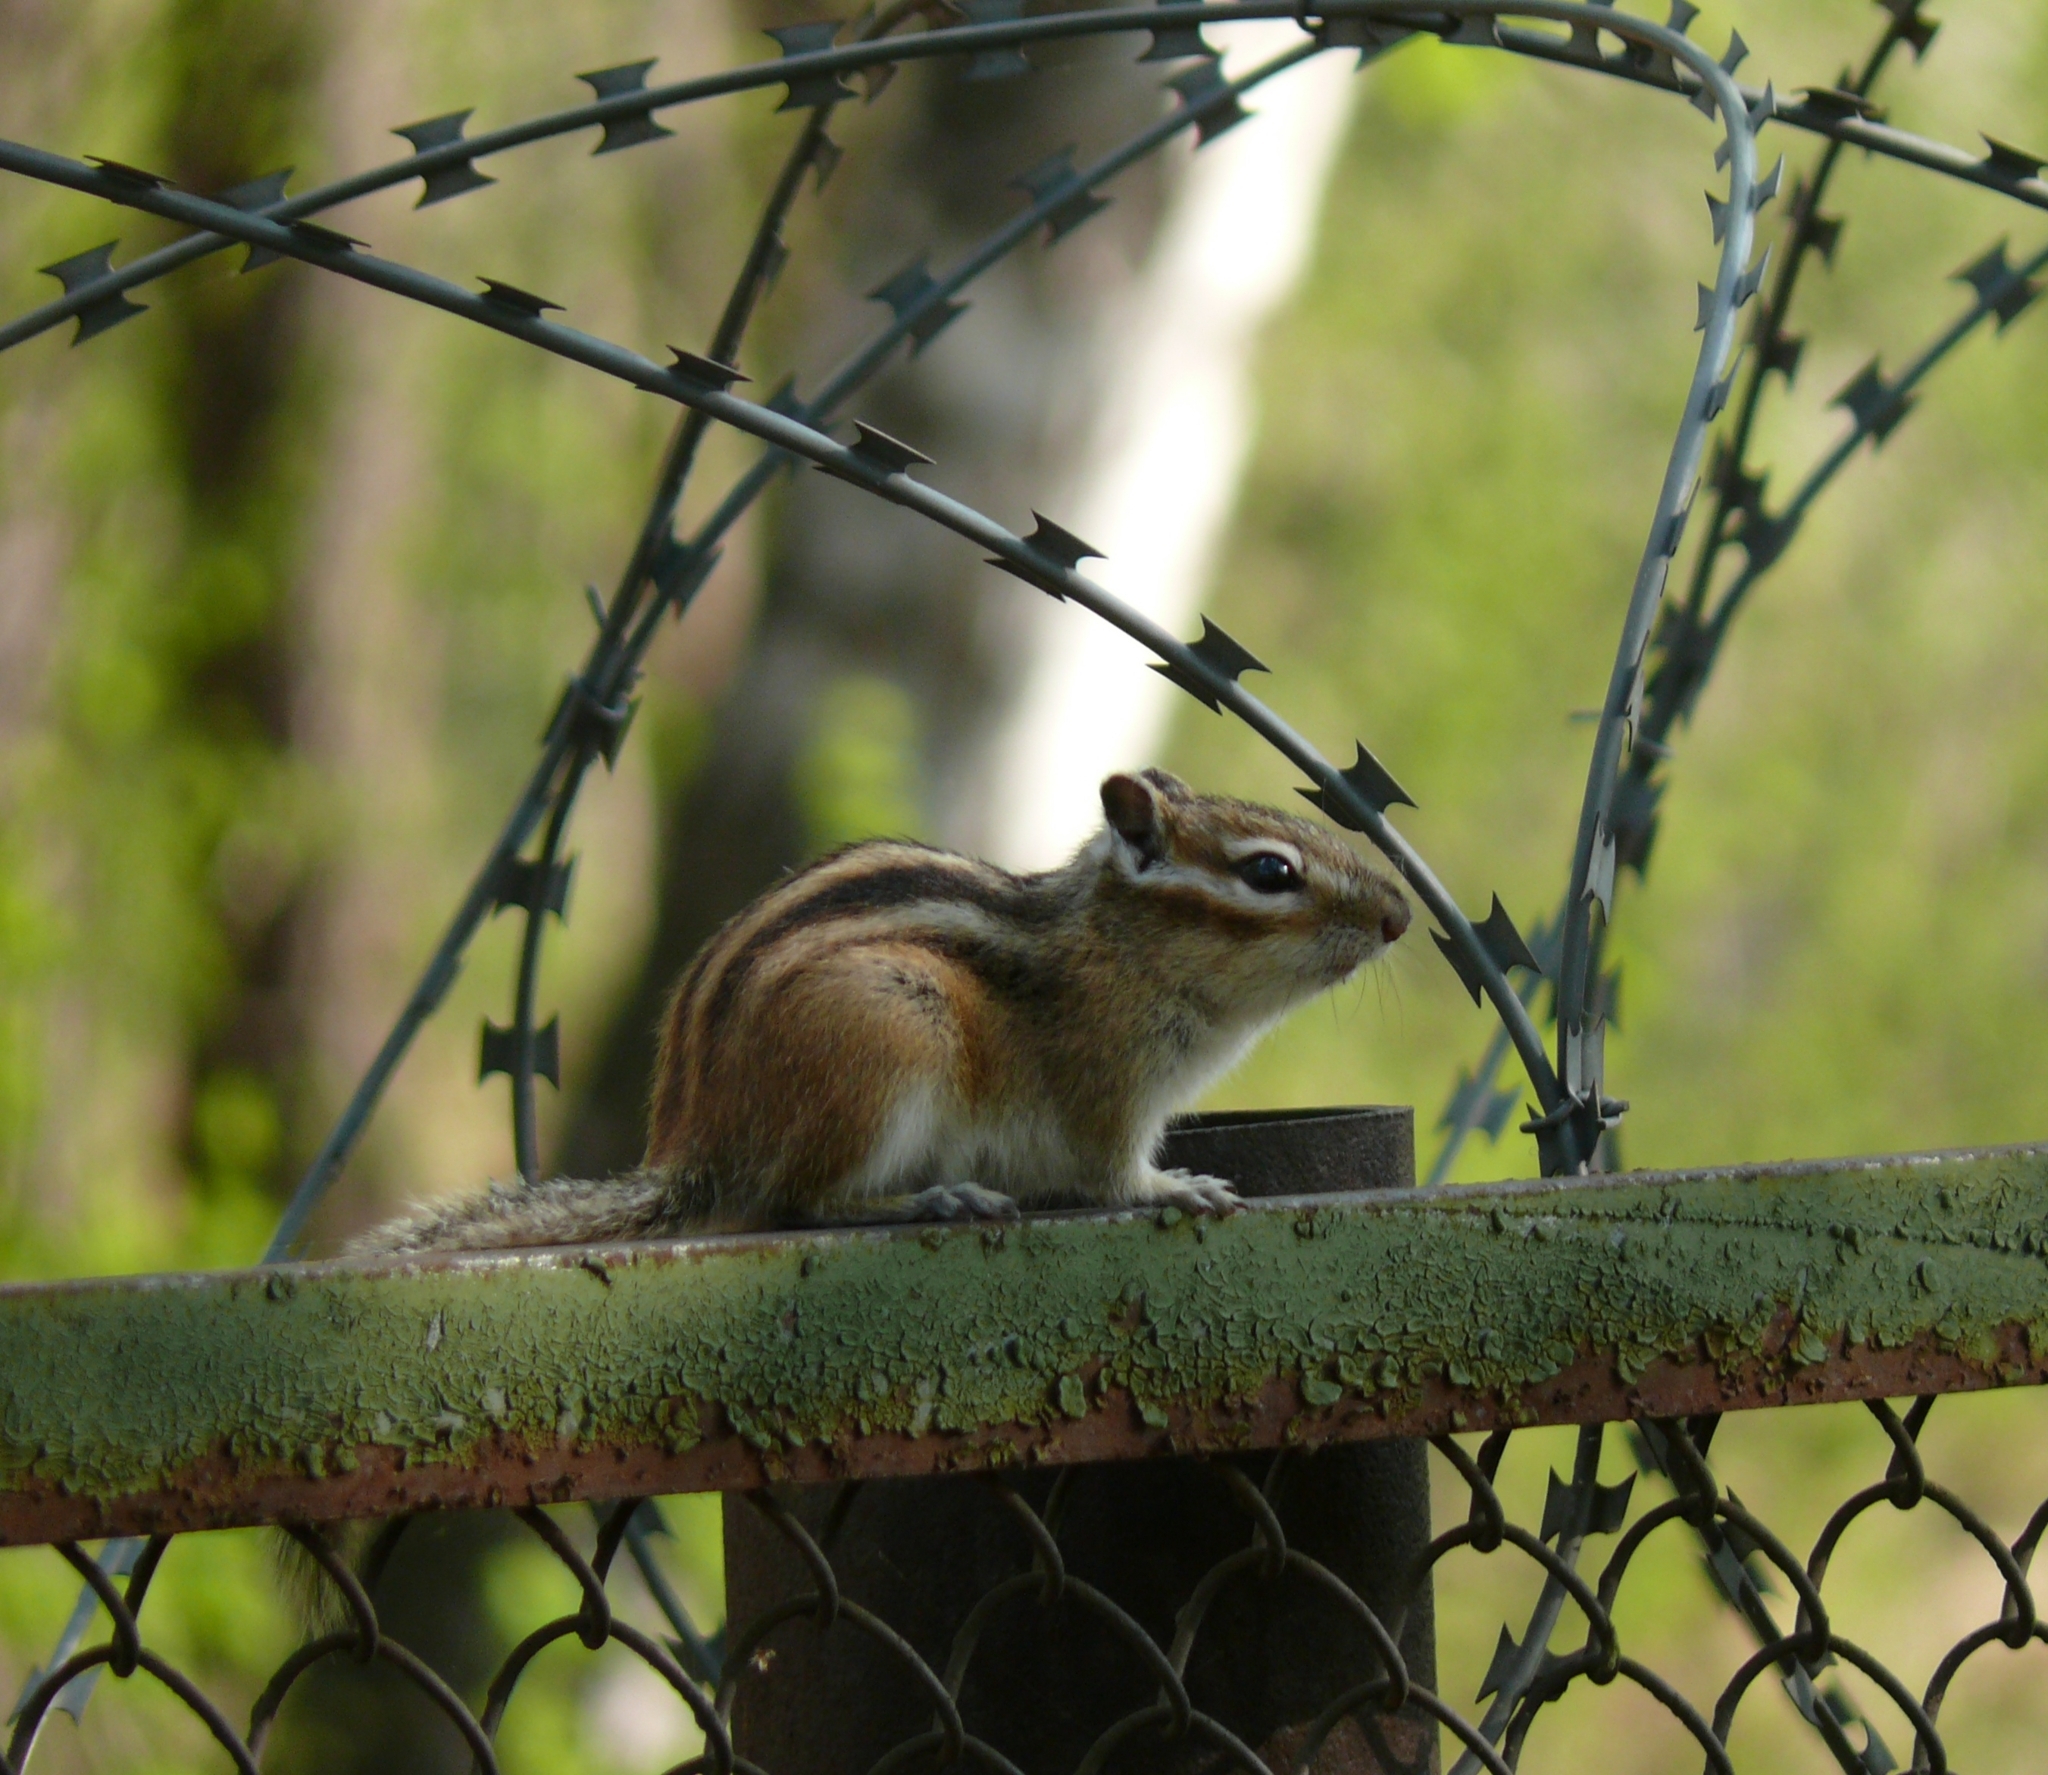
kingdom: Animalia
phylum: Chordata
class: Mammalia
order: Rodentia
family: Sciuridae
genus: Tamias
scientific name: Tamias sibiricus
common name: Siberian chipmunk
